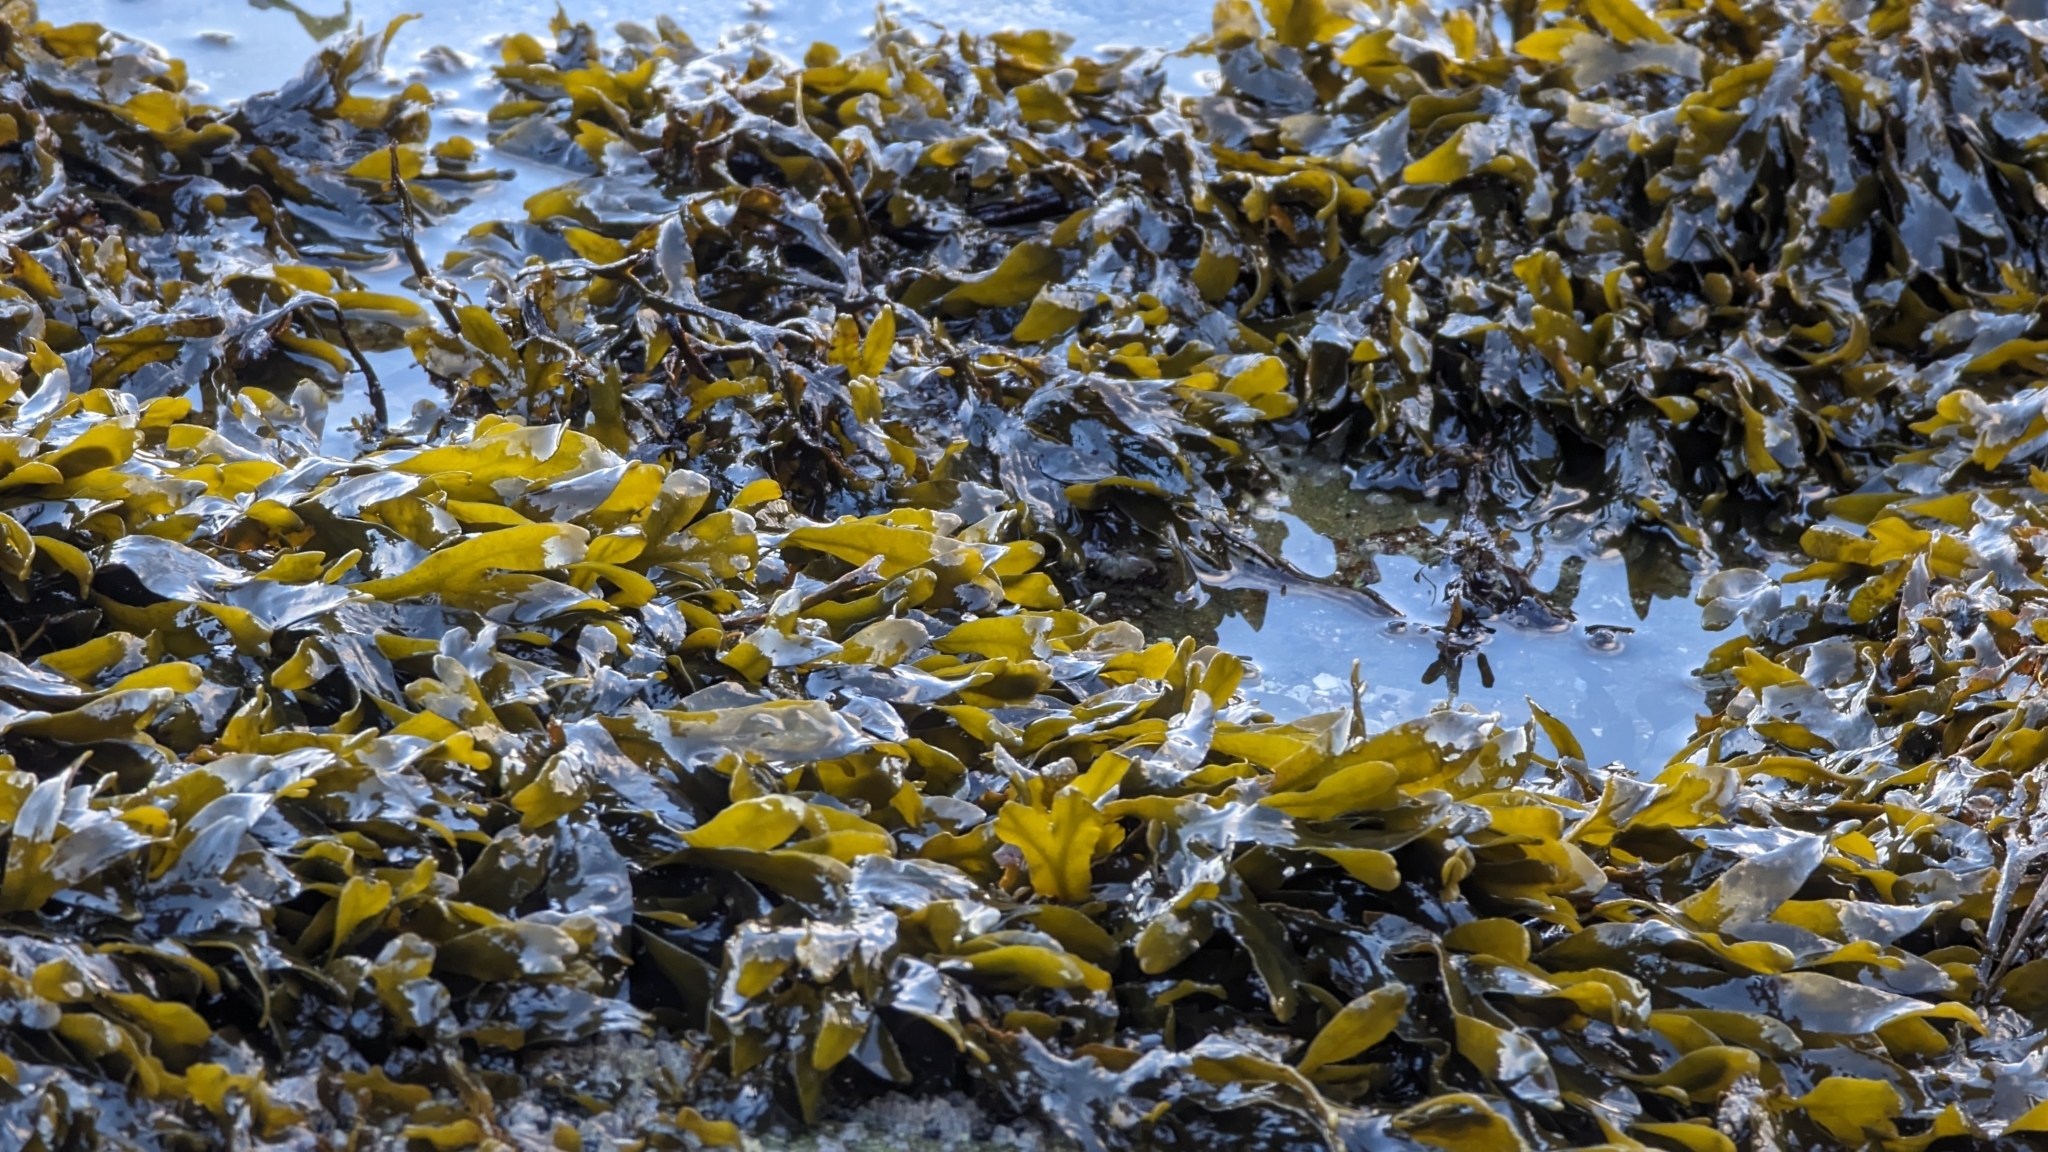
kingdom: Chromista
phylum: Ochrophyta
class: Phaeophyceae
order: Fucales
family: Fucaceae
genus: Fucus
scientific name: Fucus distichus
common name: Rockweed
